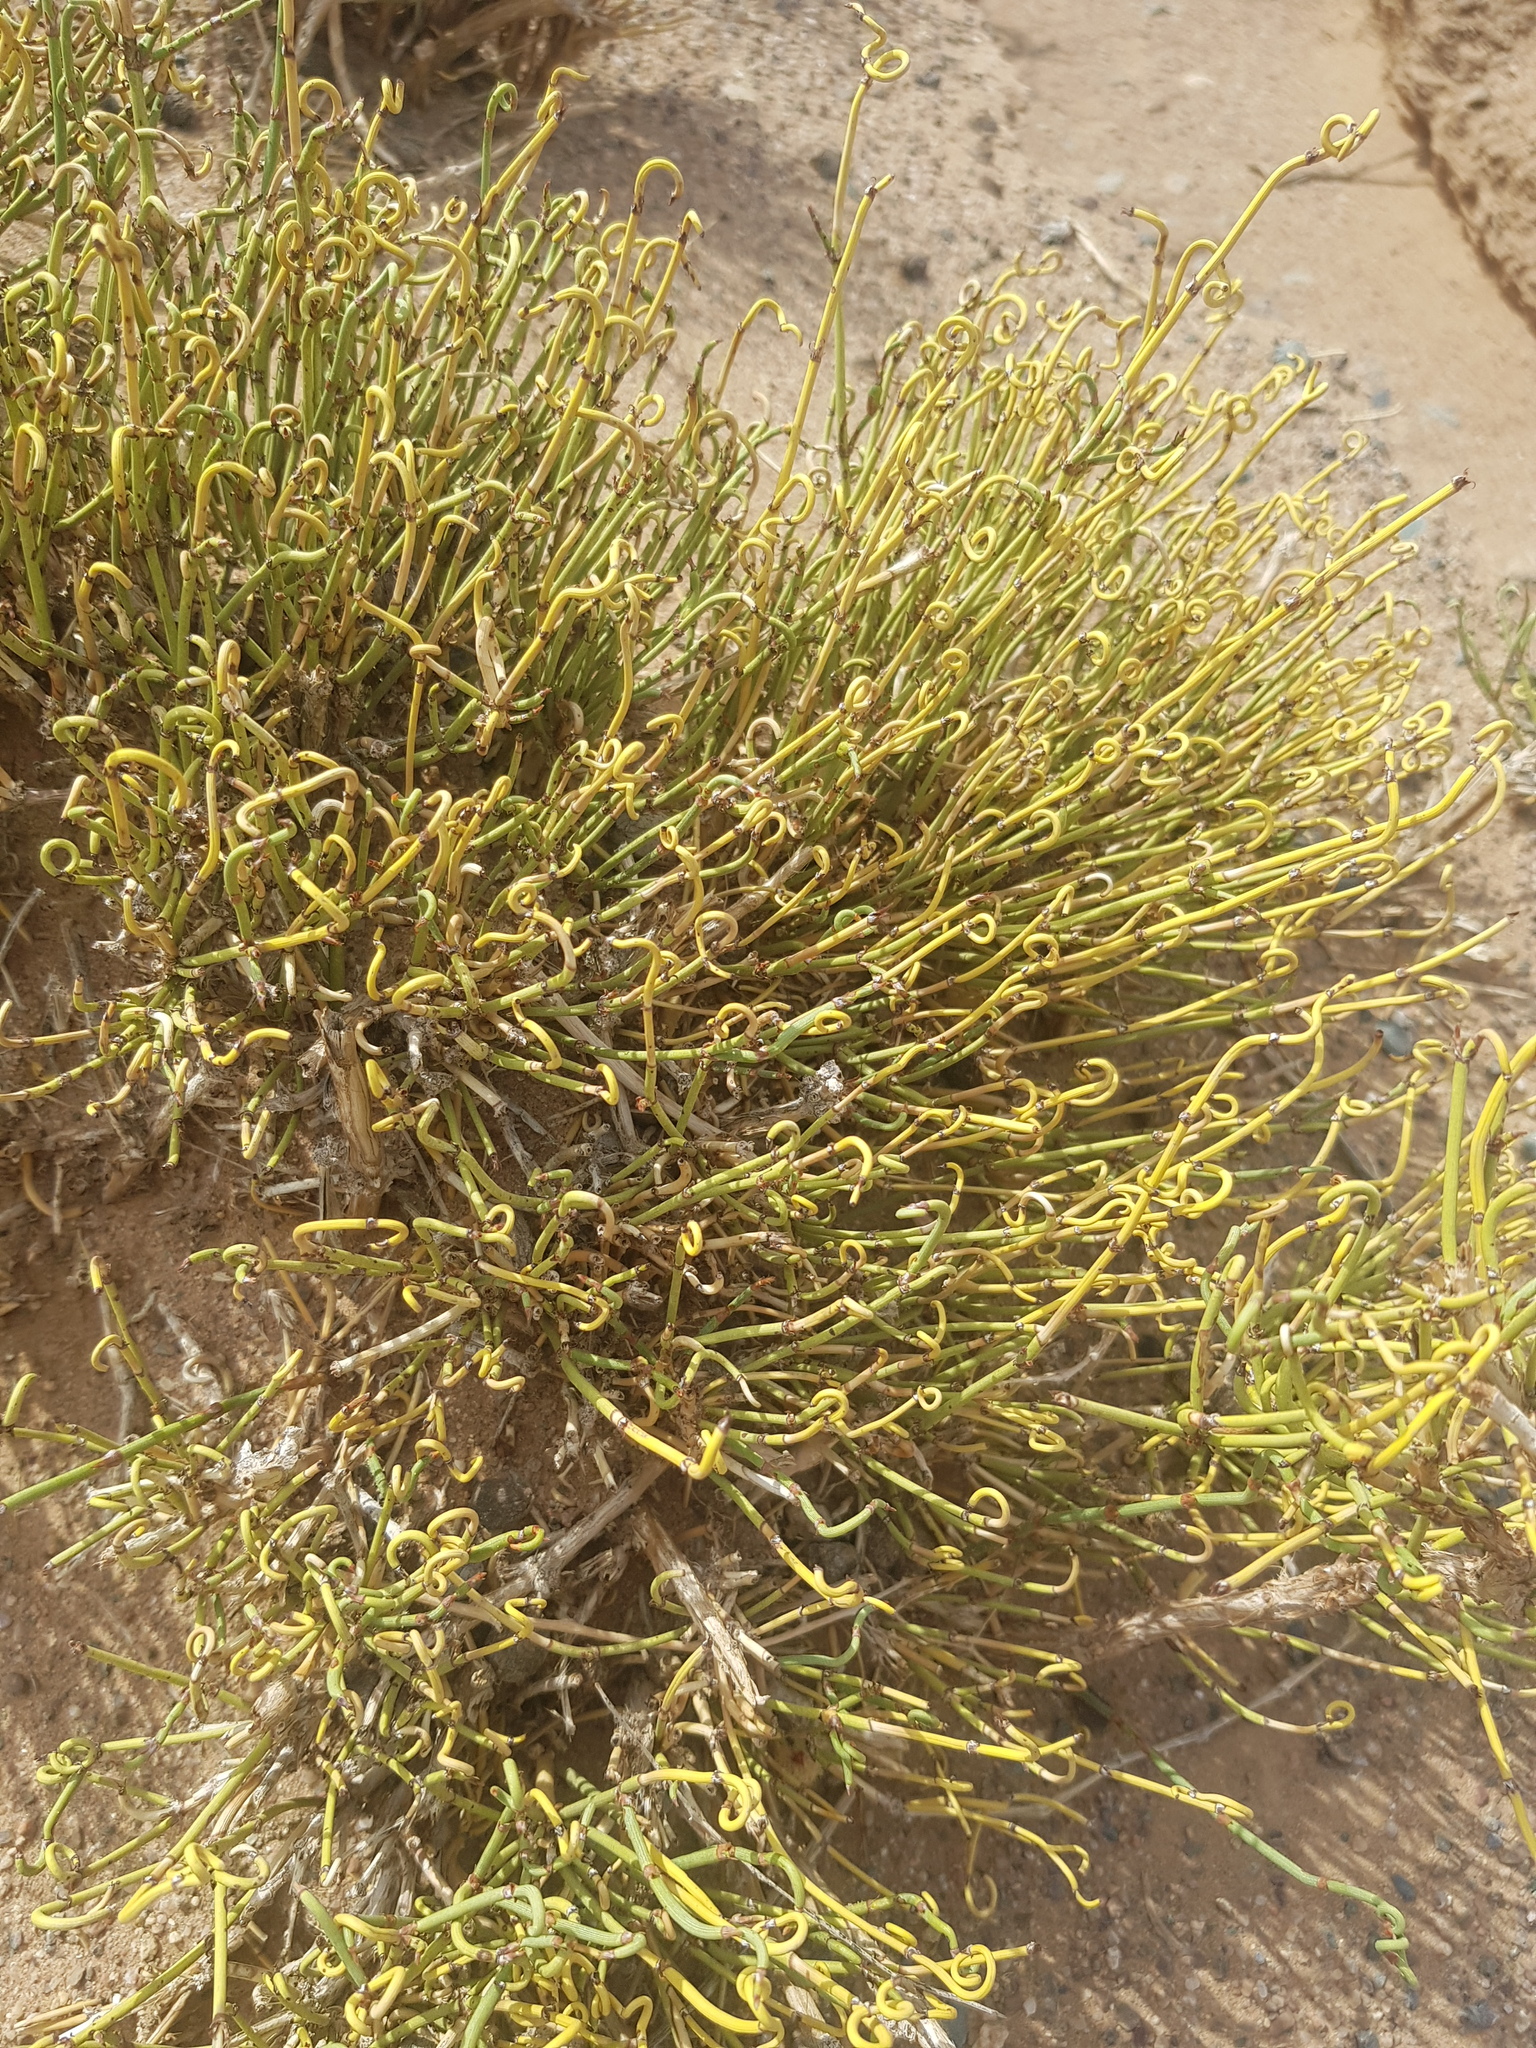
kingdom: Plantae
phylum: Tracheophyta
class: Gnetopsida
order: Ephedrales
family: Ephedraceae
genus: Ephedra
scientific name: Ephedra przewalskii
